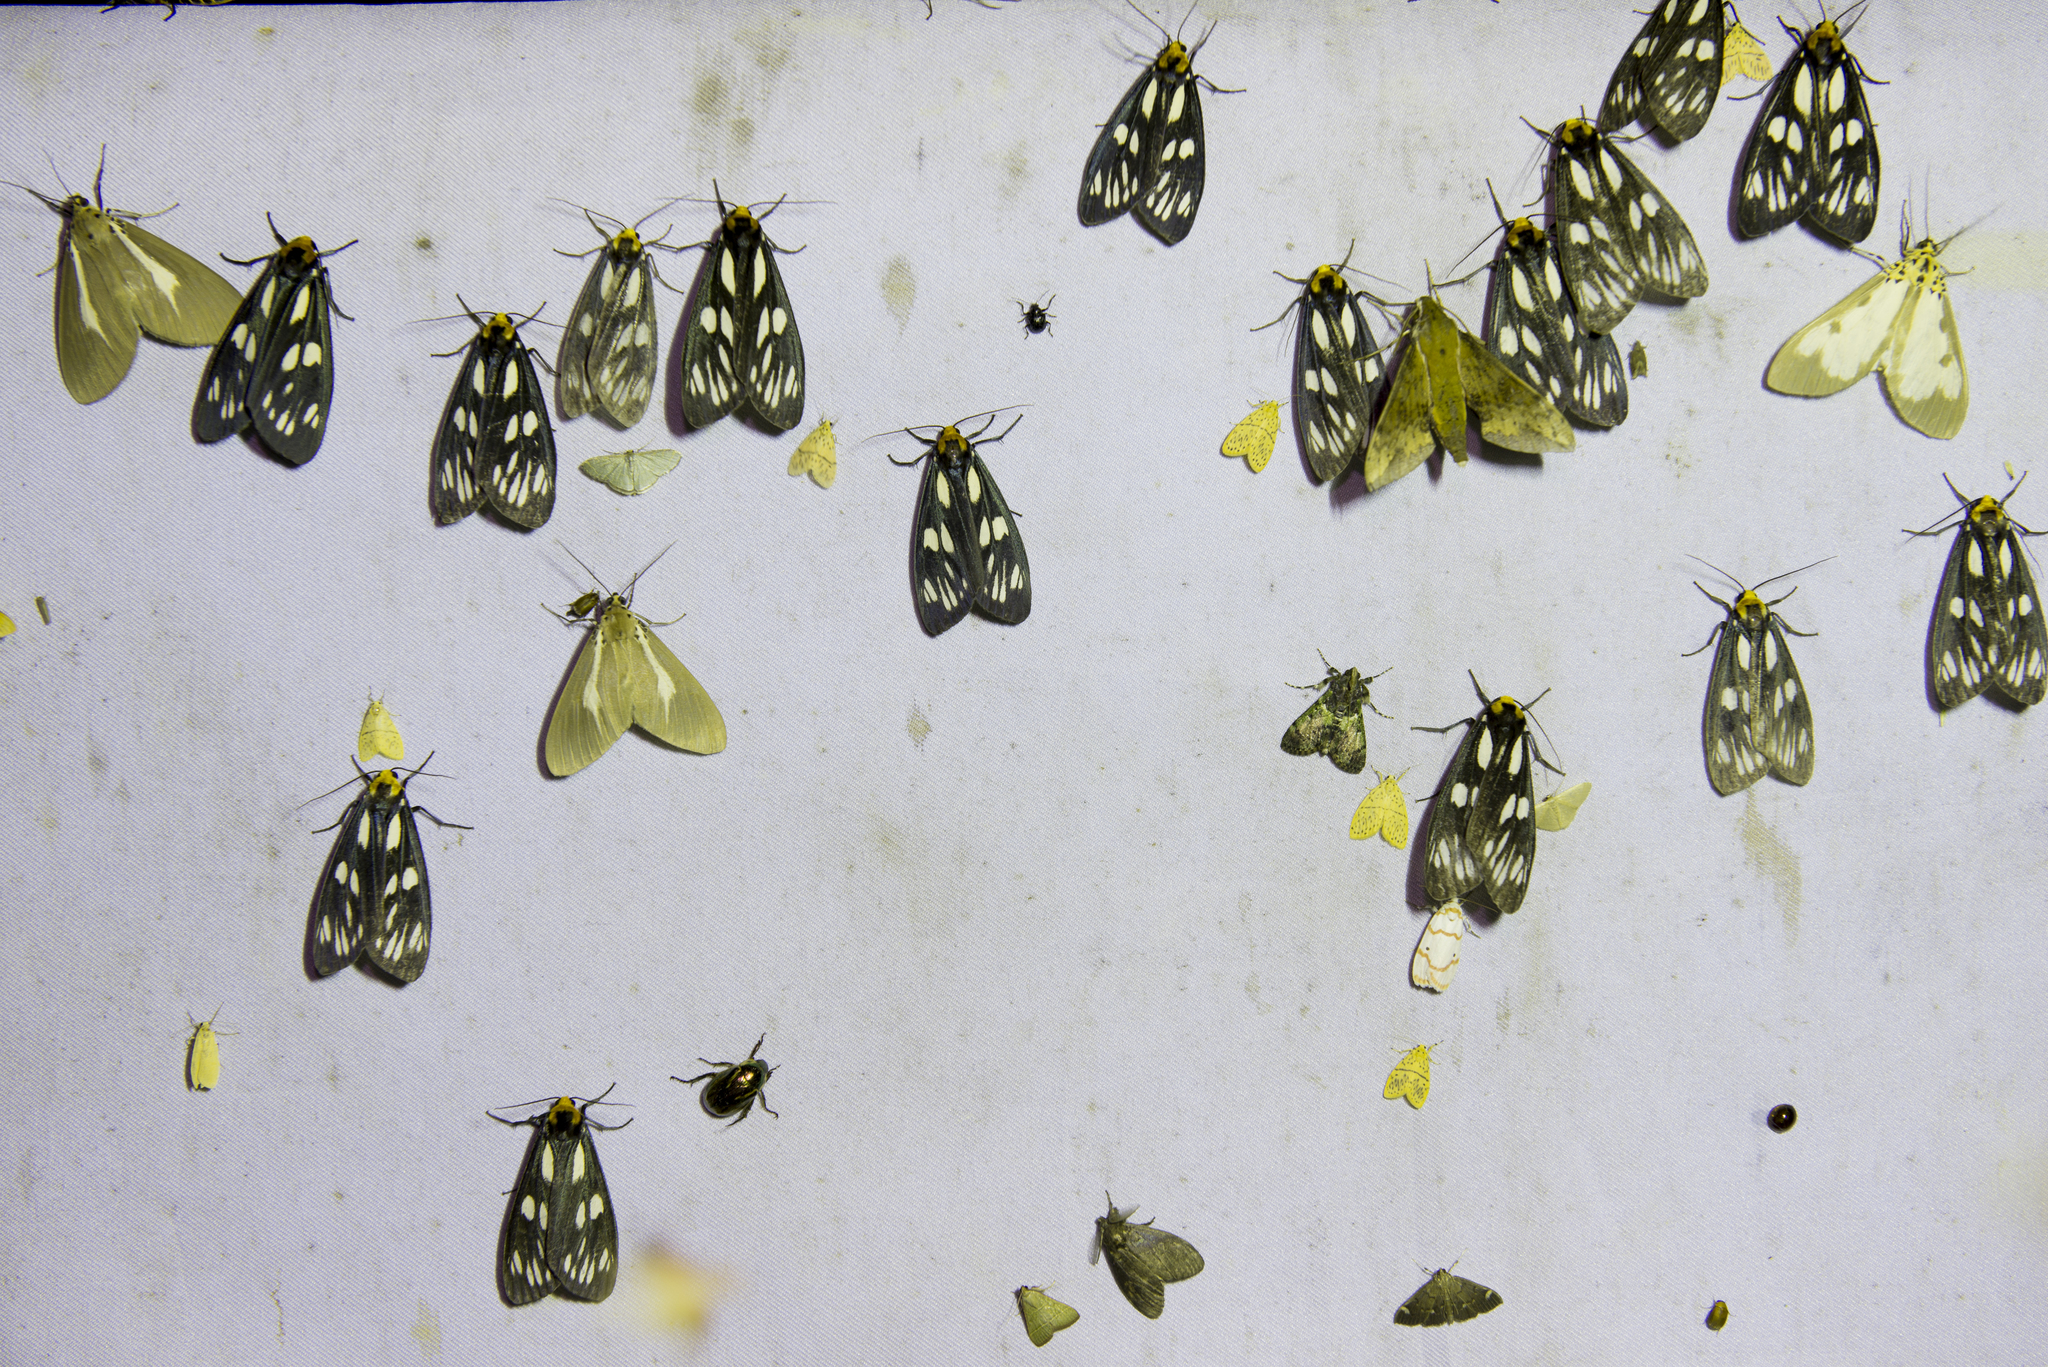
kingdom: Animalia
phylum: Arthropoda
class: Insecta
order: Lepidoptera
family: Erebidae
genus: Macrobrochis
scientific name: Macrobrochis gigas
